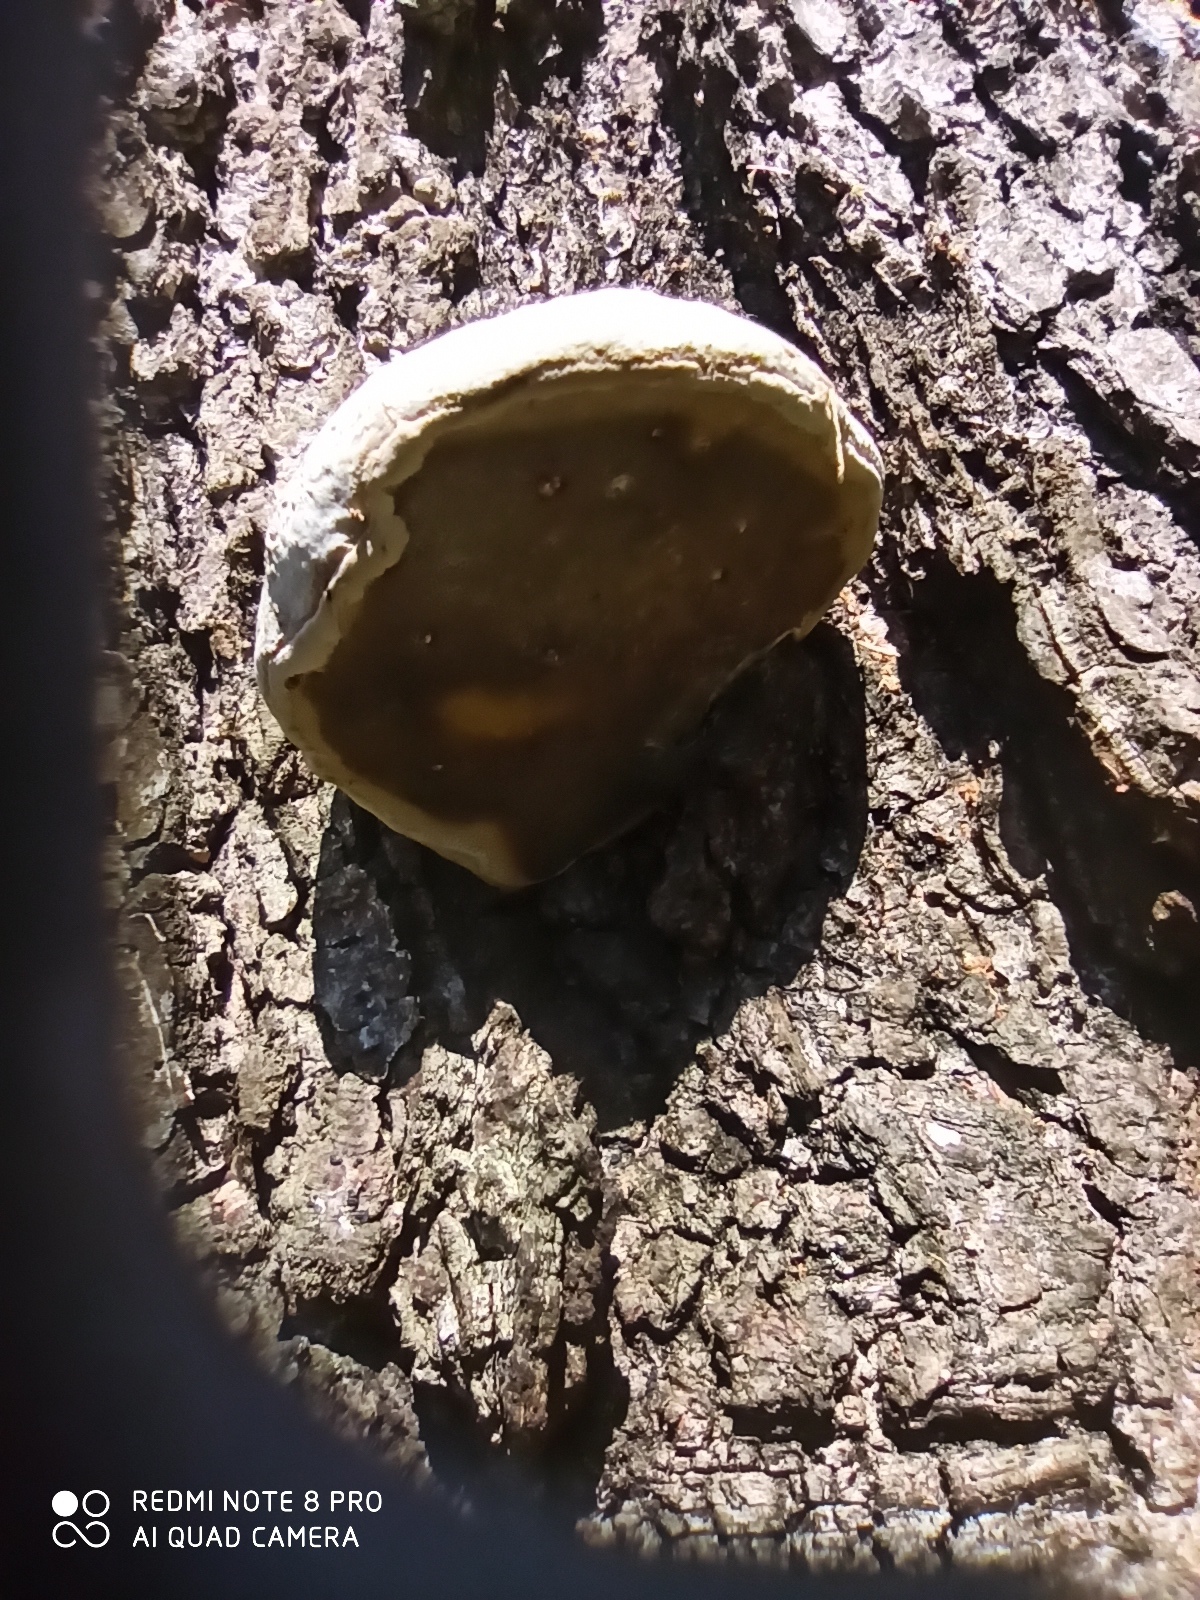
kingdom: Fungi
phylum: Basidiomycota
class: Agaricomycetes
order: Polyporales
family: Polyporaceae
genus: Fomes
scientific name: Fomes fomentarius
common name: Hoof fungus
